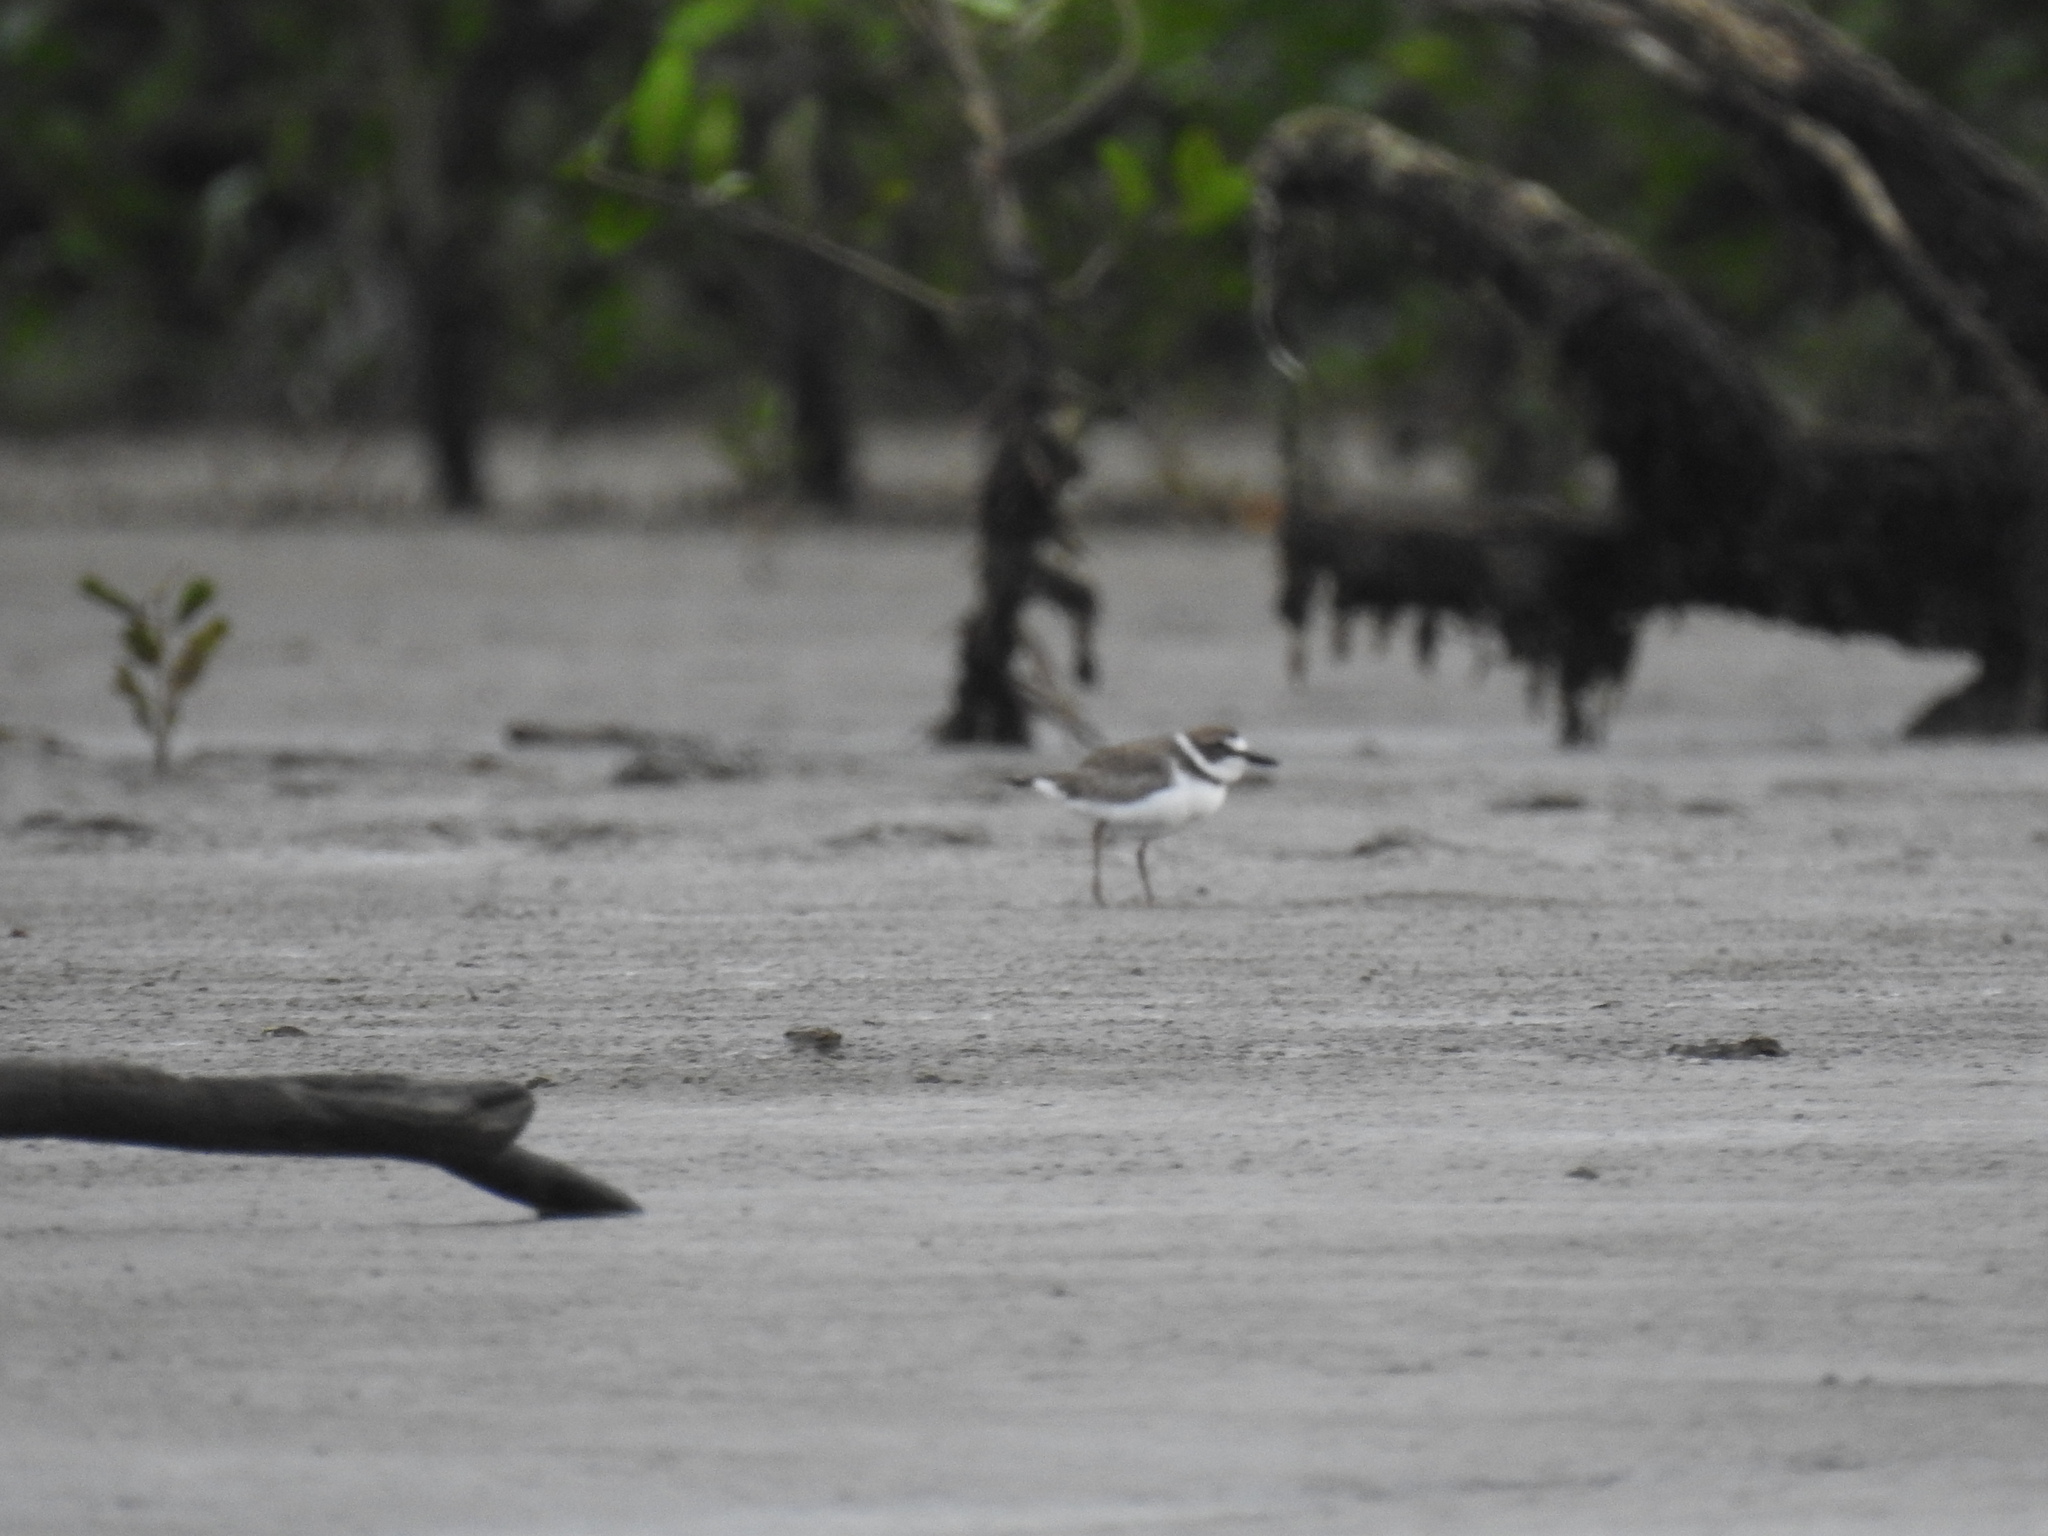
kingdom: Animalia
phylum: Chordata
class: Aves
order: Charadriiformes
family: Charadriidae
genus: Anarhynchus
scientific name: Anarhynchus
